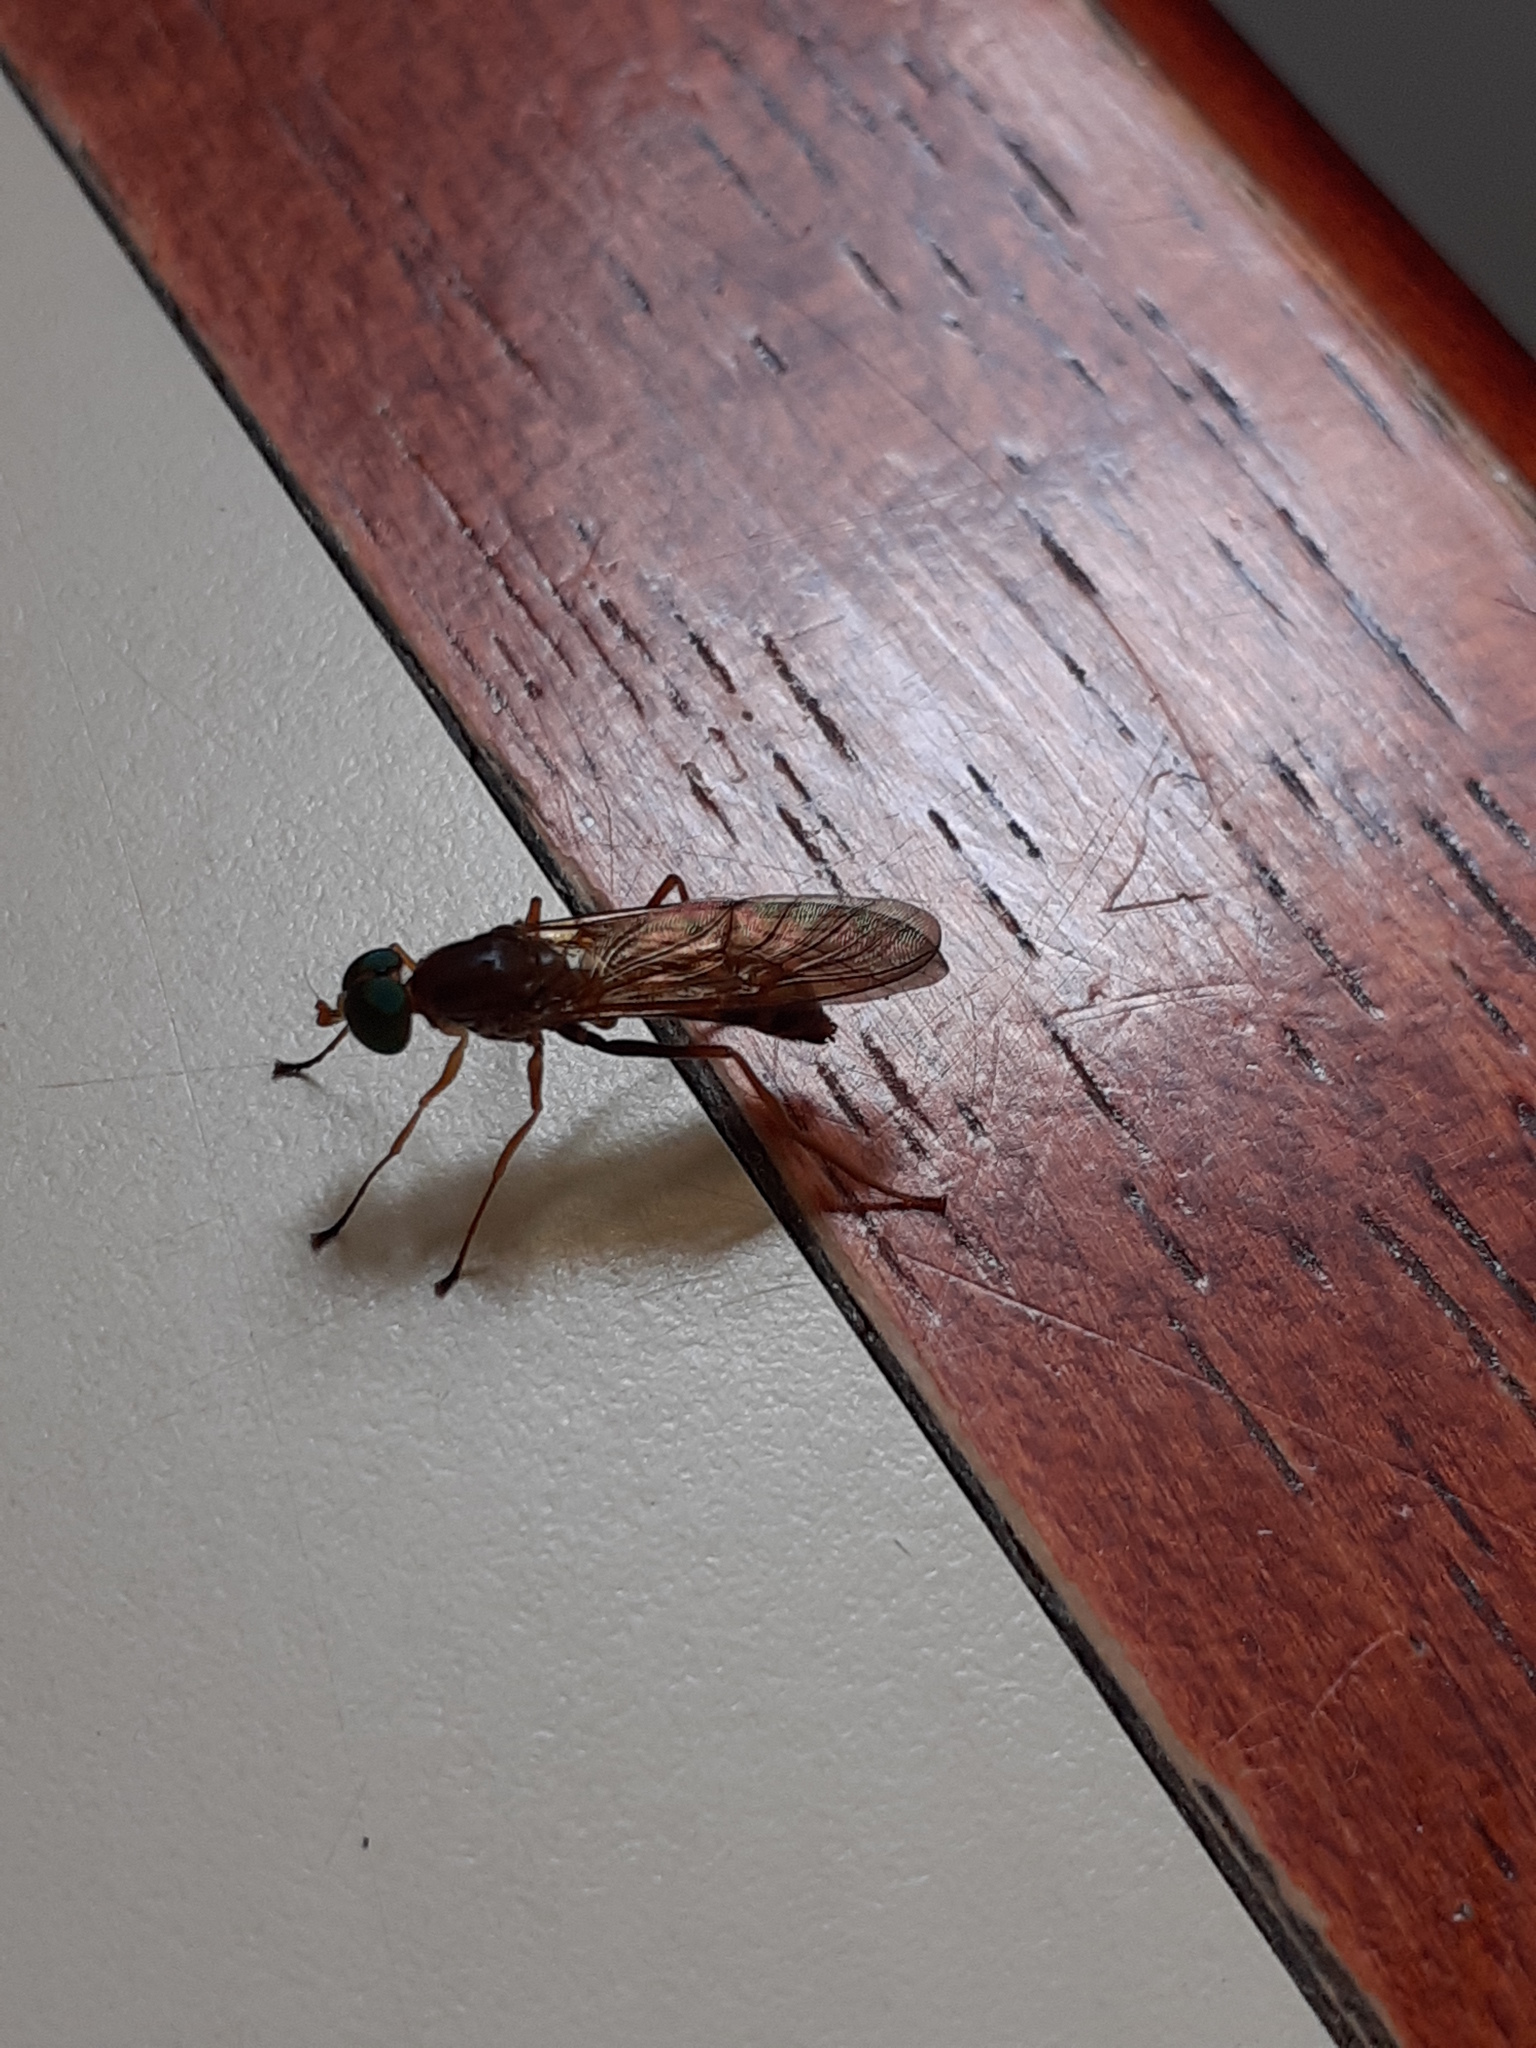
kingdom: Animalia
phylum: Arthropoda
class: Insecta
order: Diptera
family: Stratiomyidae
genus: Ptecticus
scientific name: Ptecticus inops
